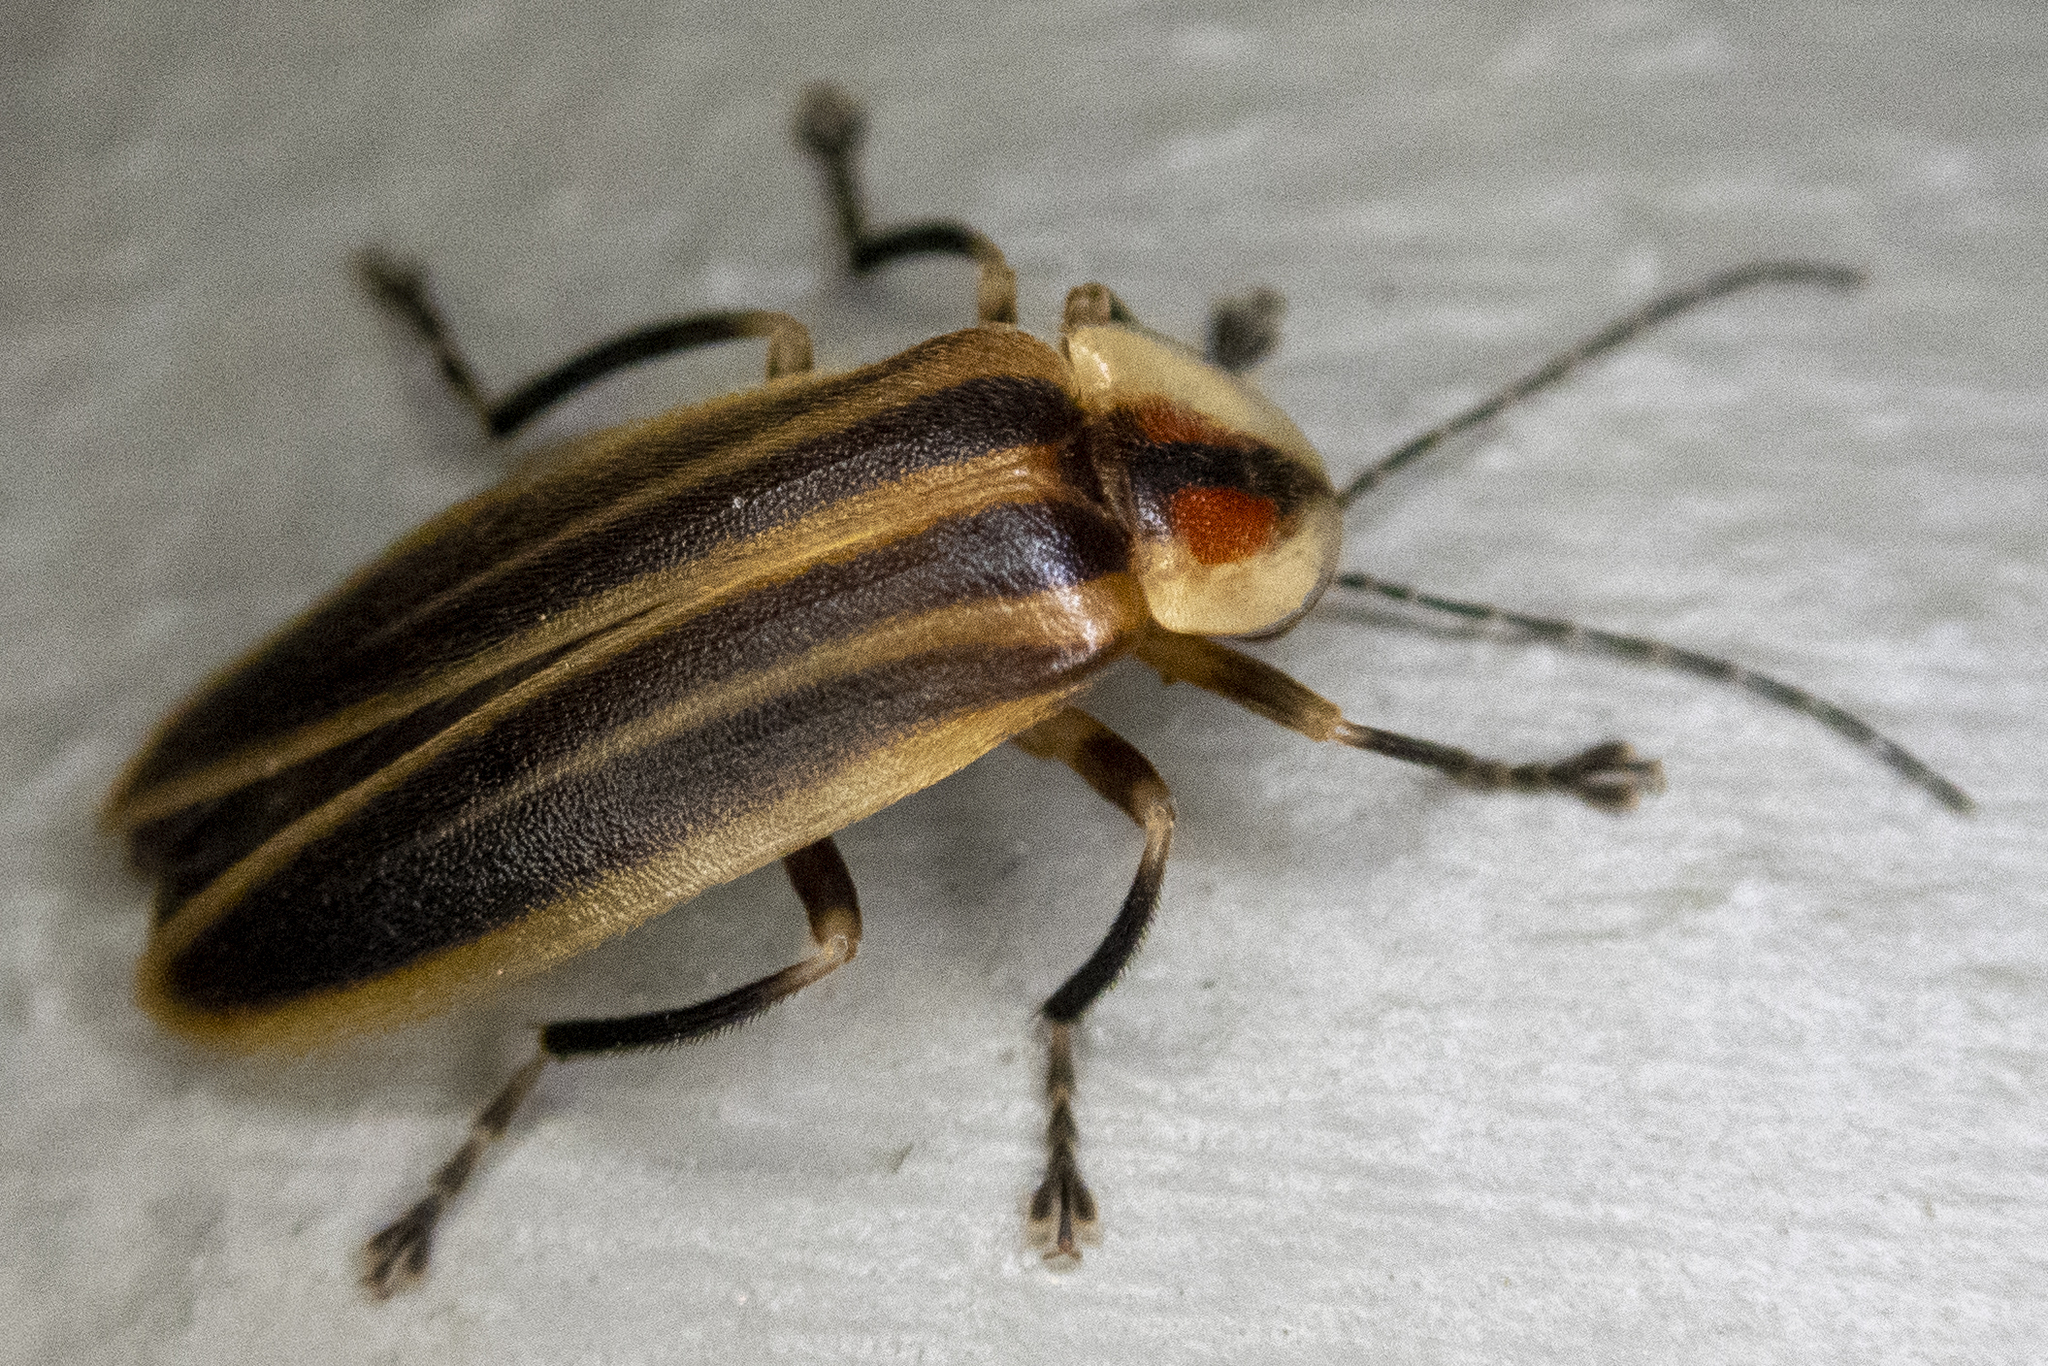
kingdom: Animalia
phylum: Arthropoda
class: Insecta
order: Coleoptera
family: Lampyridae
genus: Photuris
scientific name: Photuris
